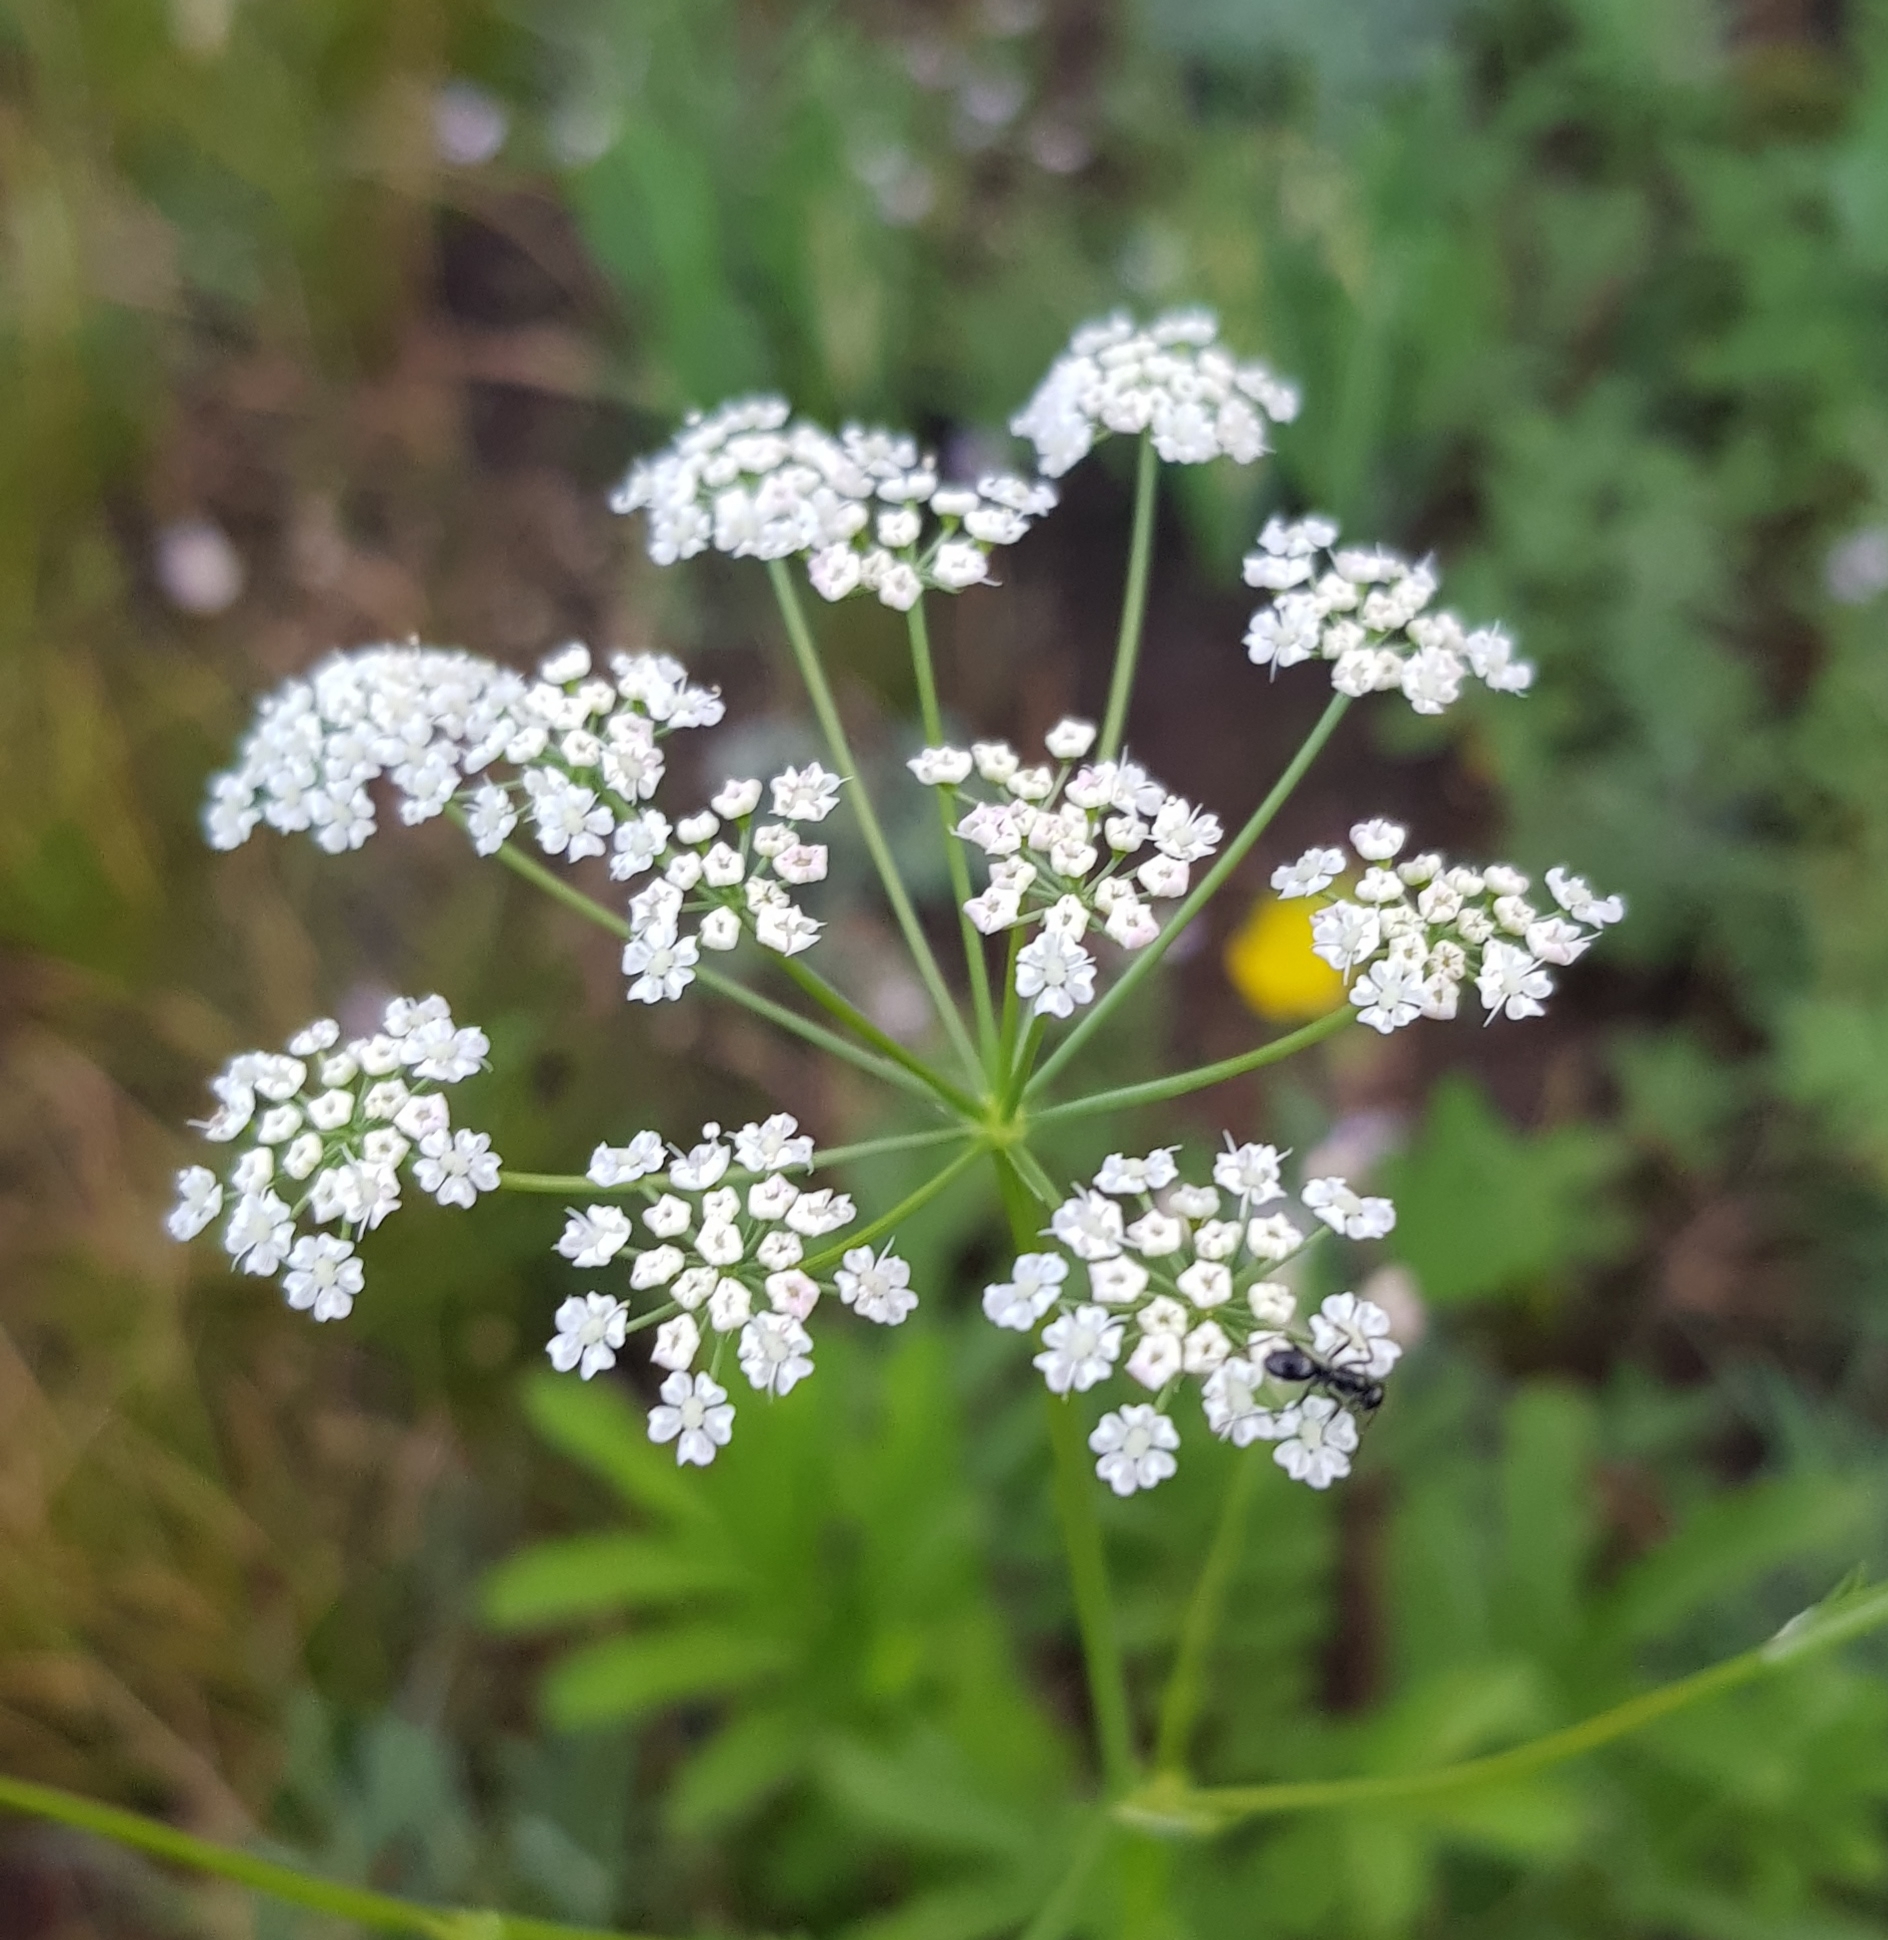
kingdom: Plantae
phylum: Tracheophyta
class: Magnoliopsida
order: Apiales
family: Apiaceae
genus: Aegopodium
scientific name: Aegopodium alpestre
